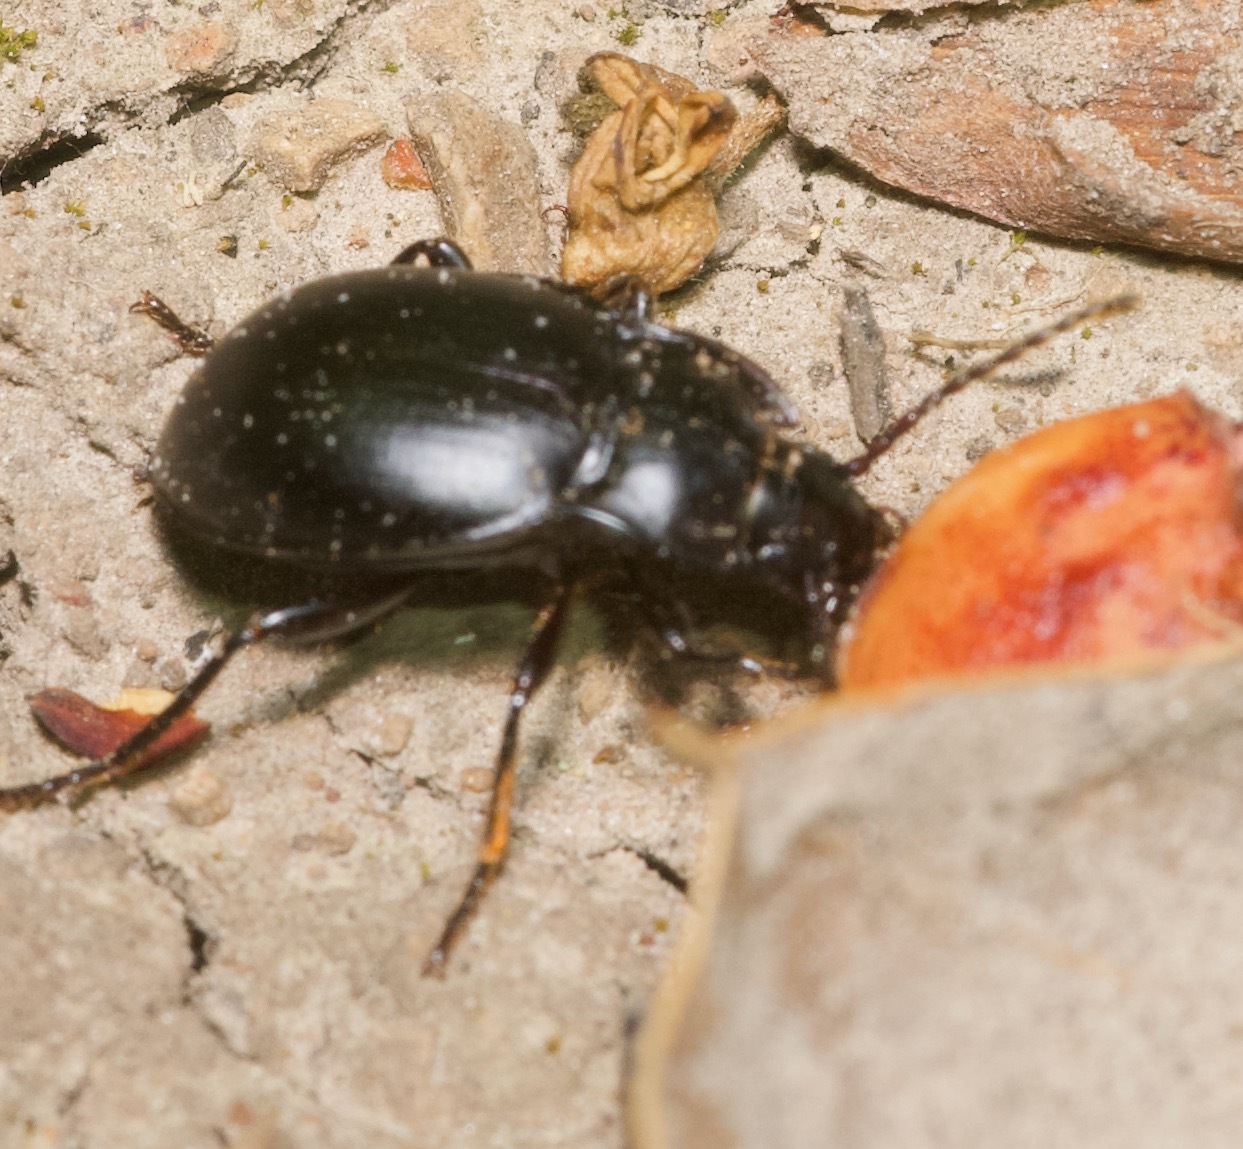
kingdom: Animalia
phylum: Arthropoda
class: Insecta
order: Coleoptera
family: Carabidae
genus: Metrius
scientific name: Metrius contractus
